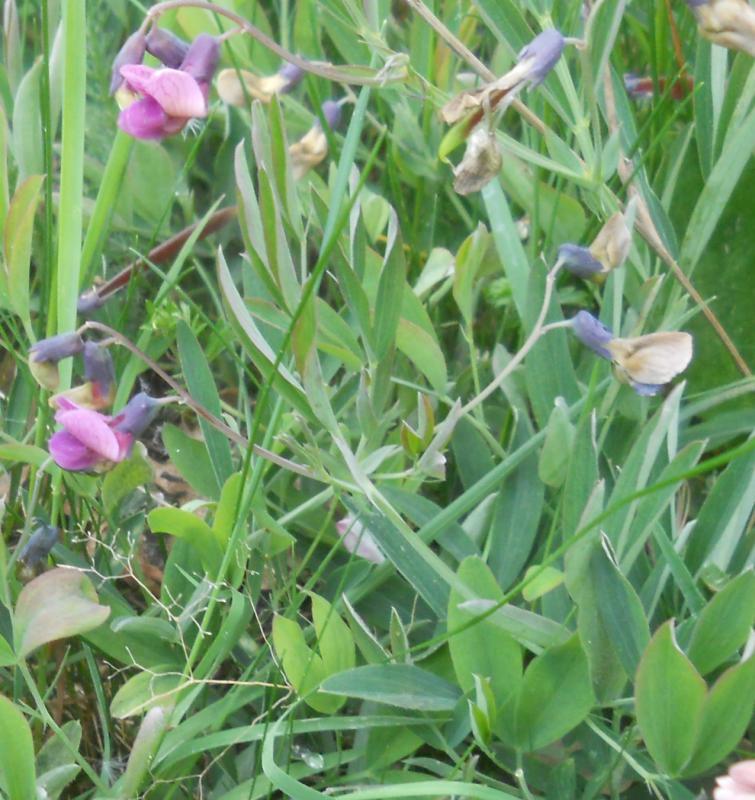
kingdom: Plantae
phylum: Tracheophyta
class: Magnoliopsida
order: Fabales
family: Fabaceae
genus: Lathyrus
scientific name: Lathyrus linifolius
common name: Bitter-vetch
